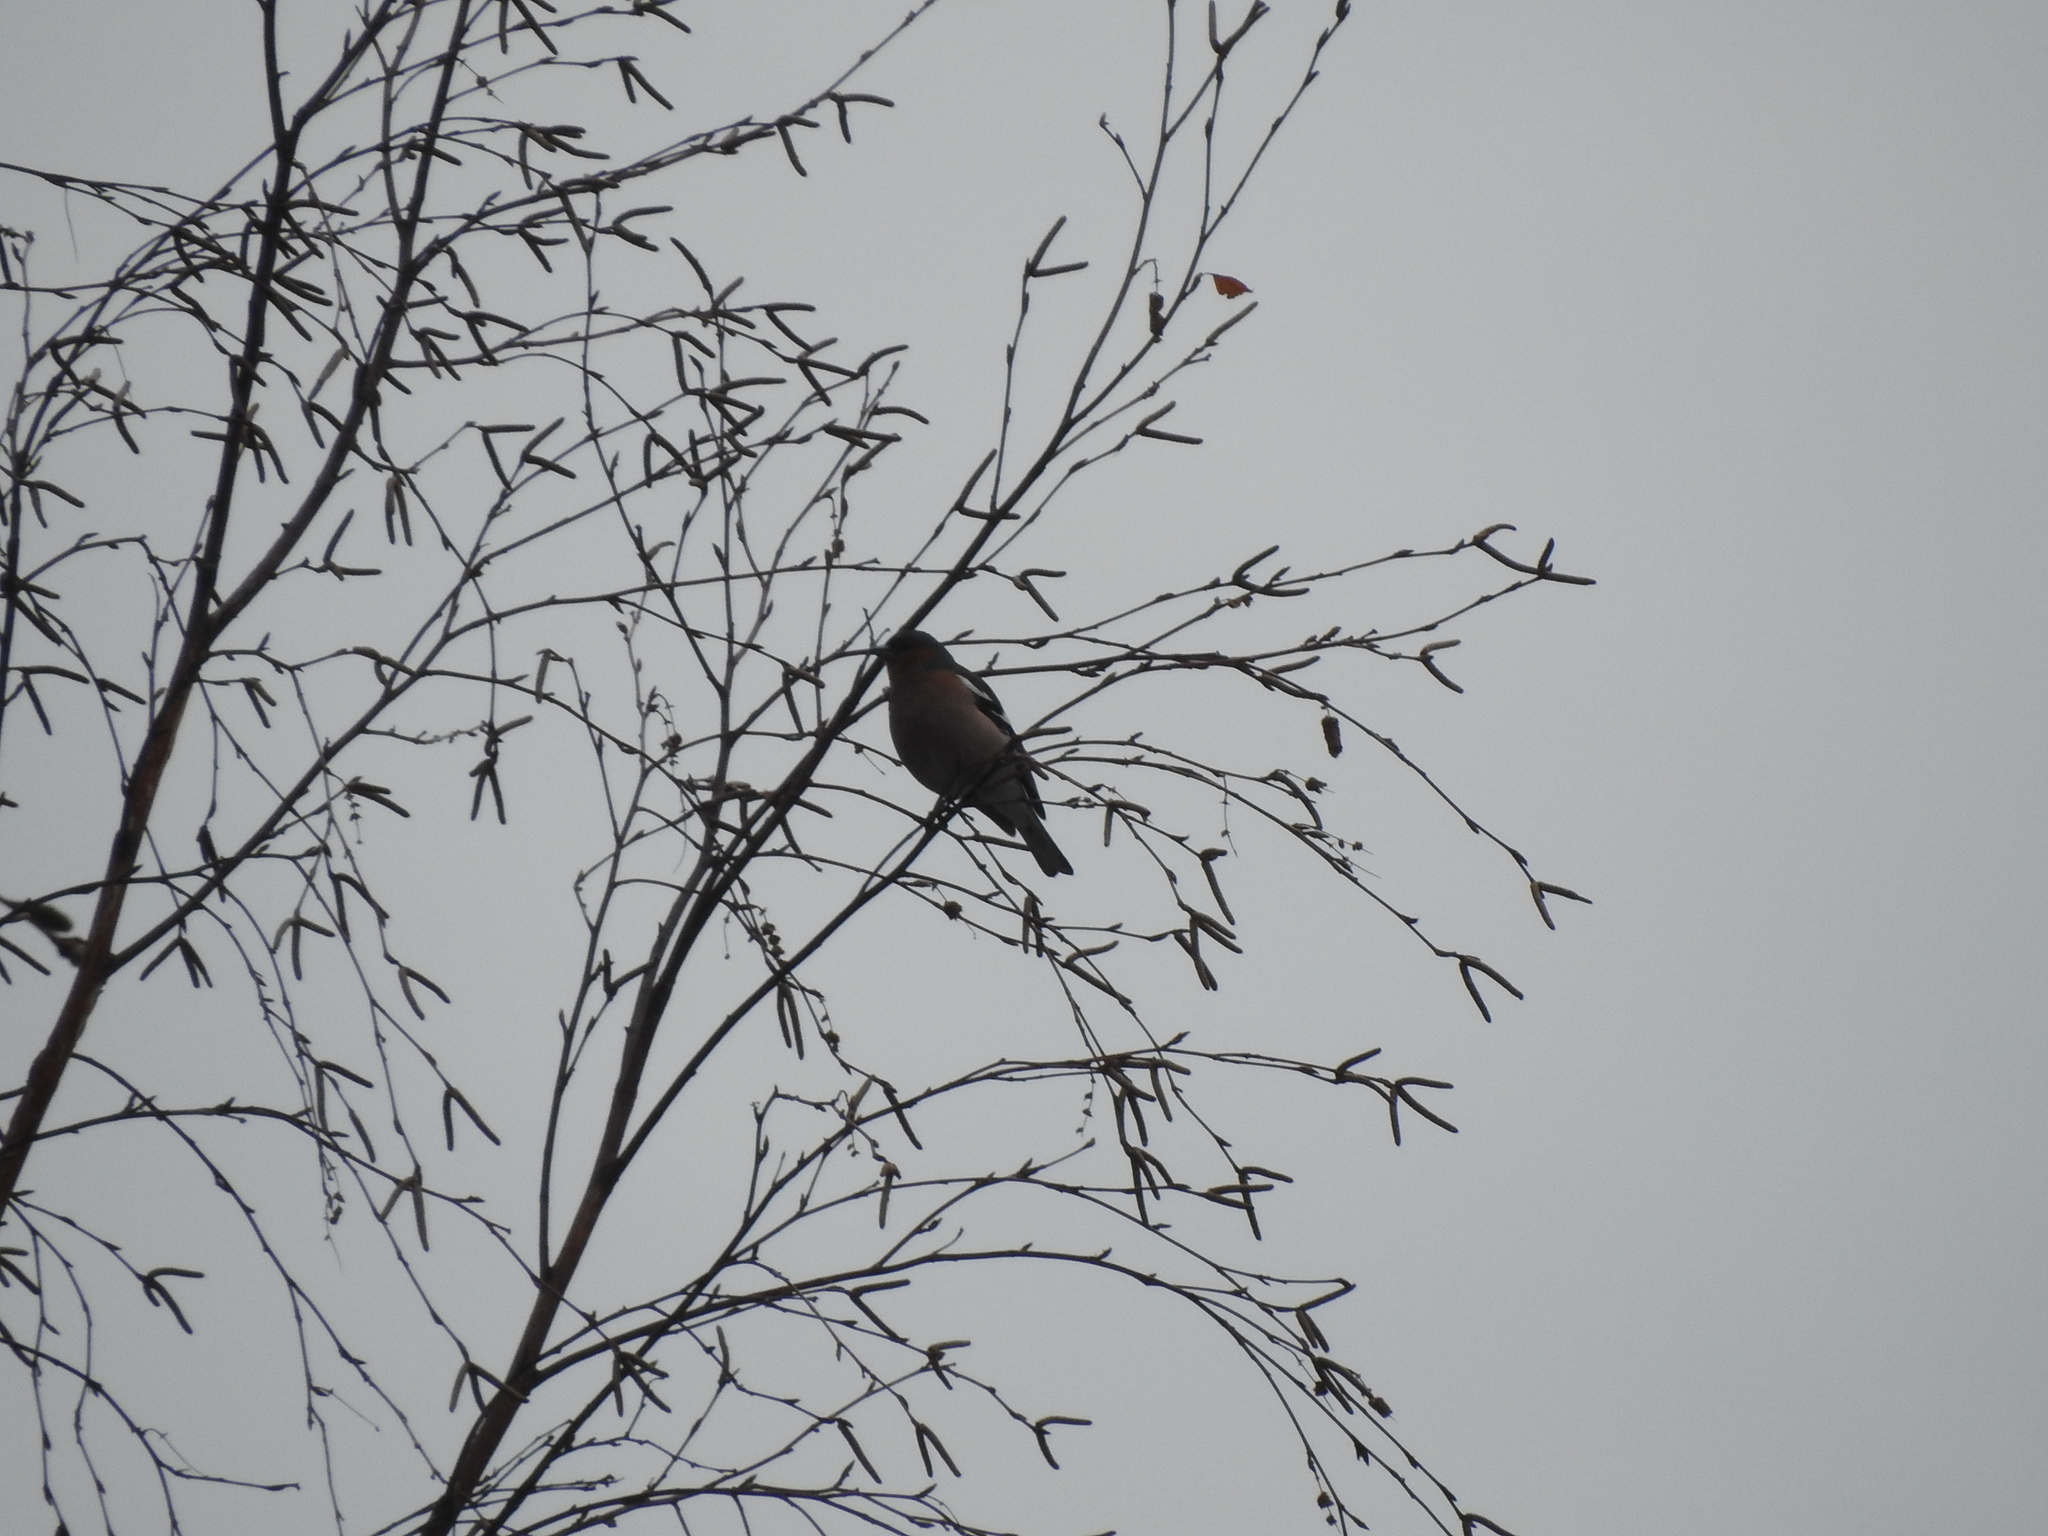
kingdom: Animalia
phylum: Chordata
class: Aves
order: Passeriformes
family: Fringillidae
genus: Fringilla
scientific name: Fringilla coelebs
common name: Common chaffinch
